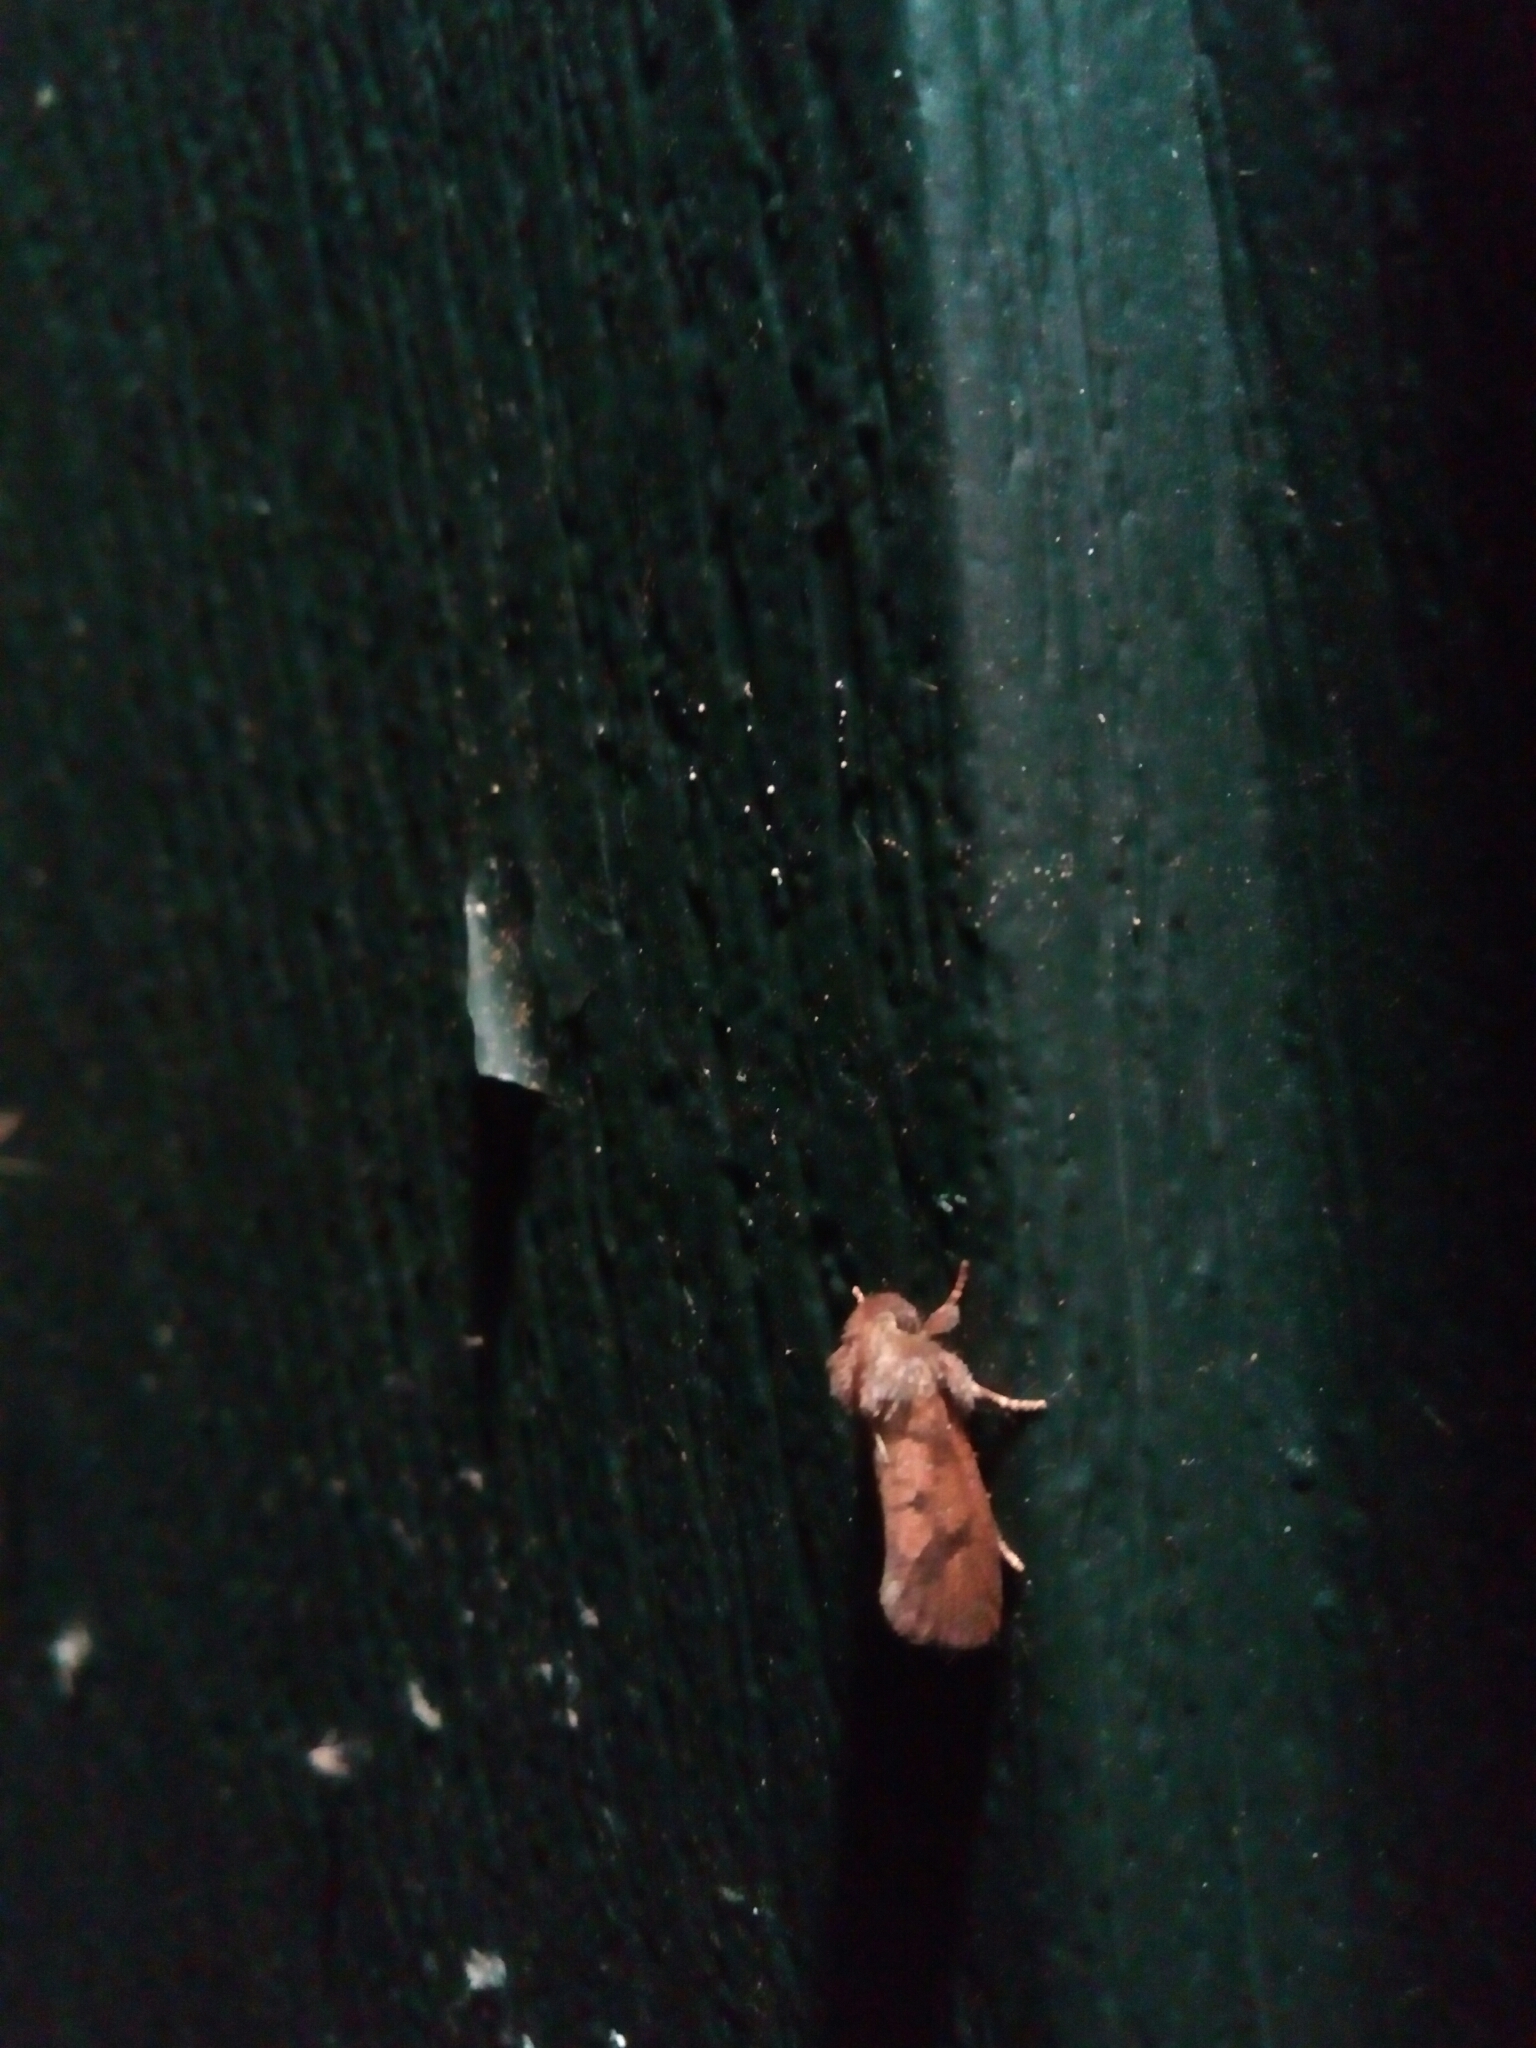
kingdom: Animalia
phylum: Arthropoda
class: Insecta
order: Lepidoptera
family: Tineidae
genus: Acrolophus
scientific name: Acrolophus plumifrontella
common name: Eastern grass tubeworm moth
